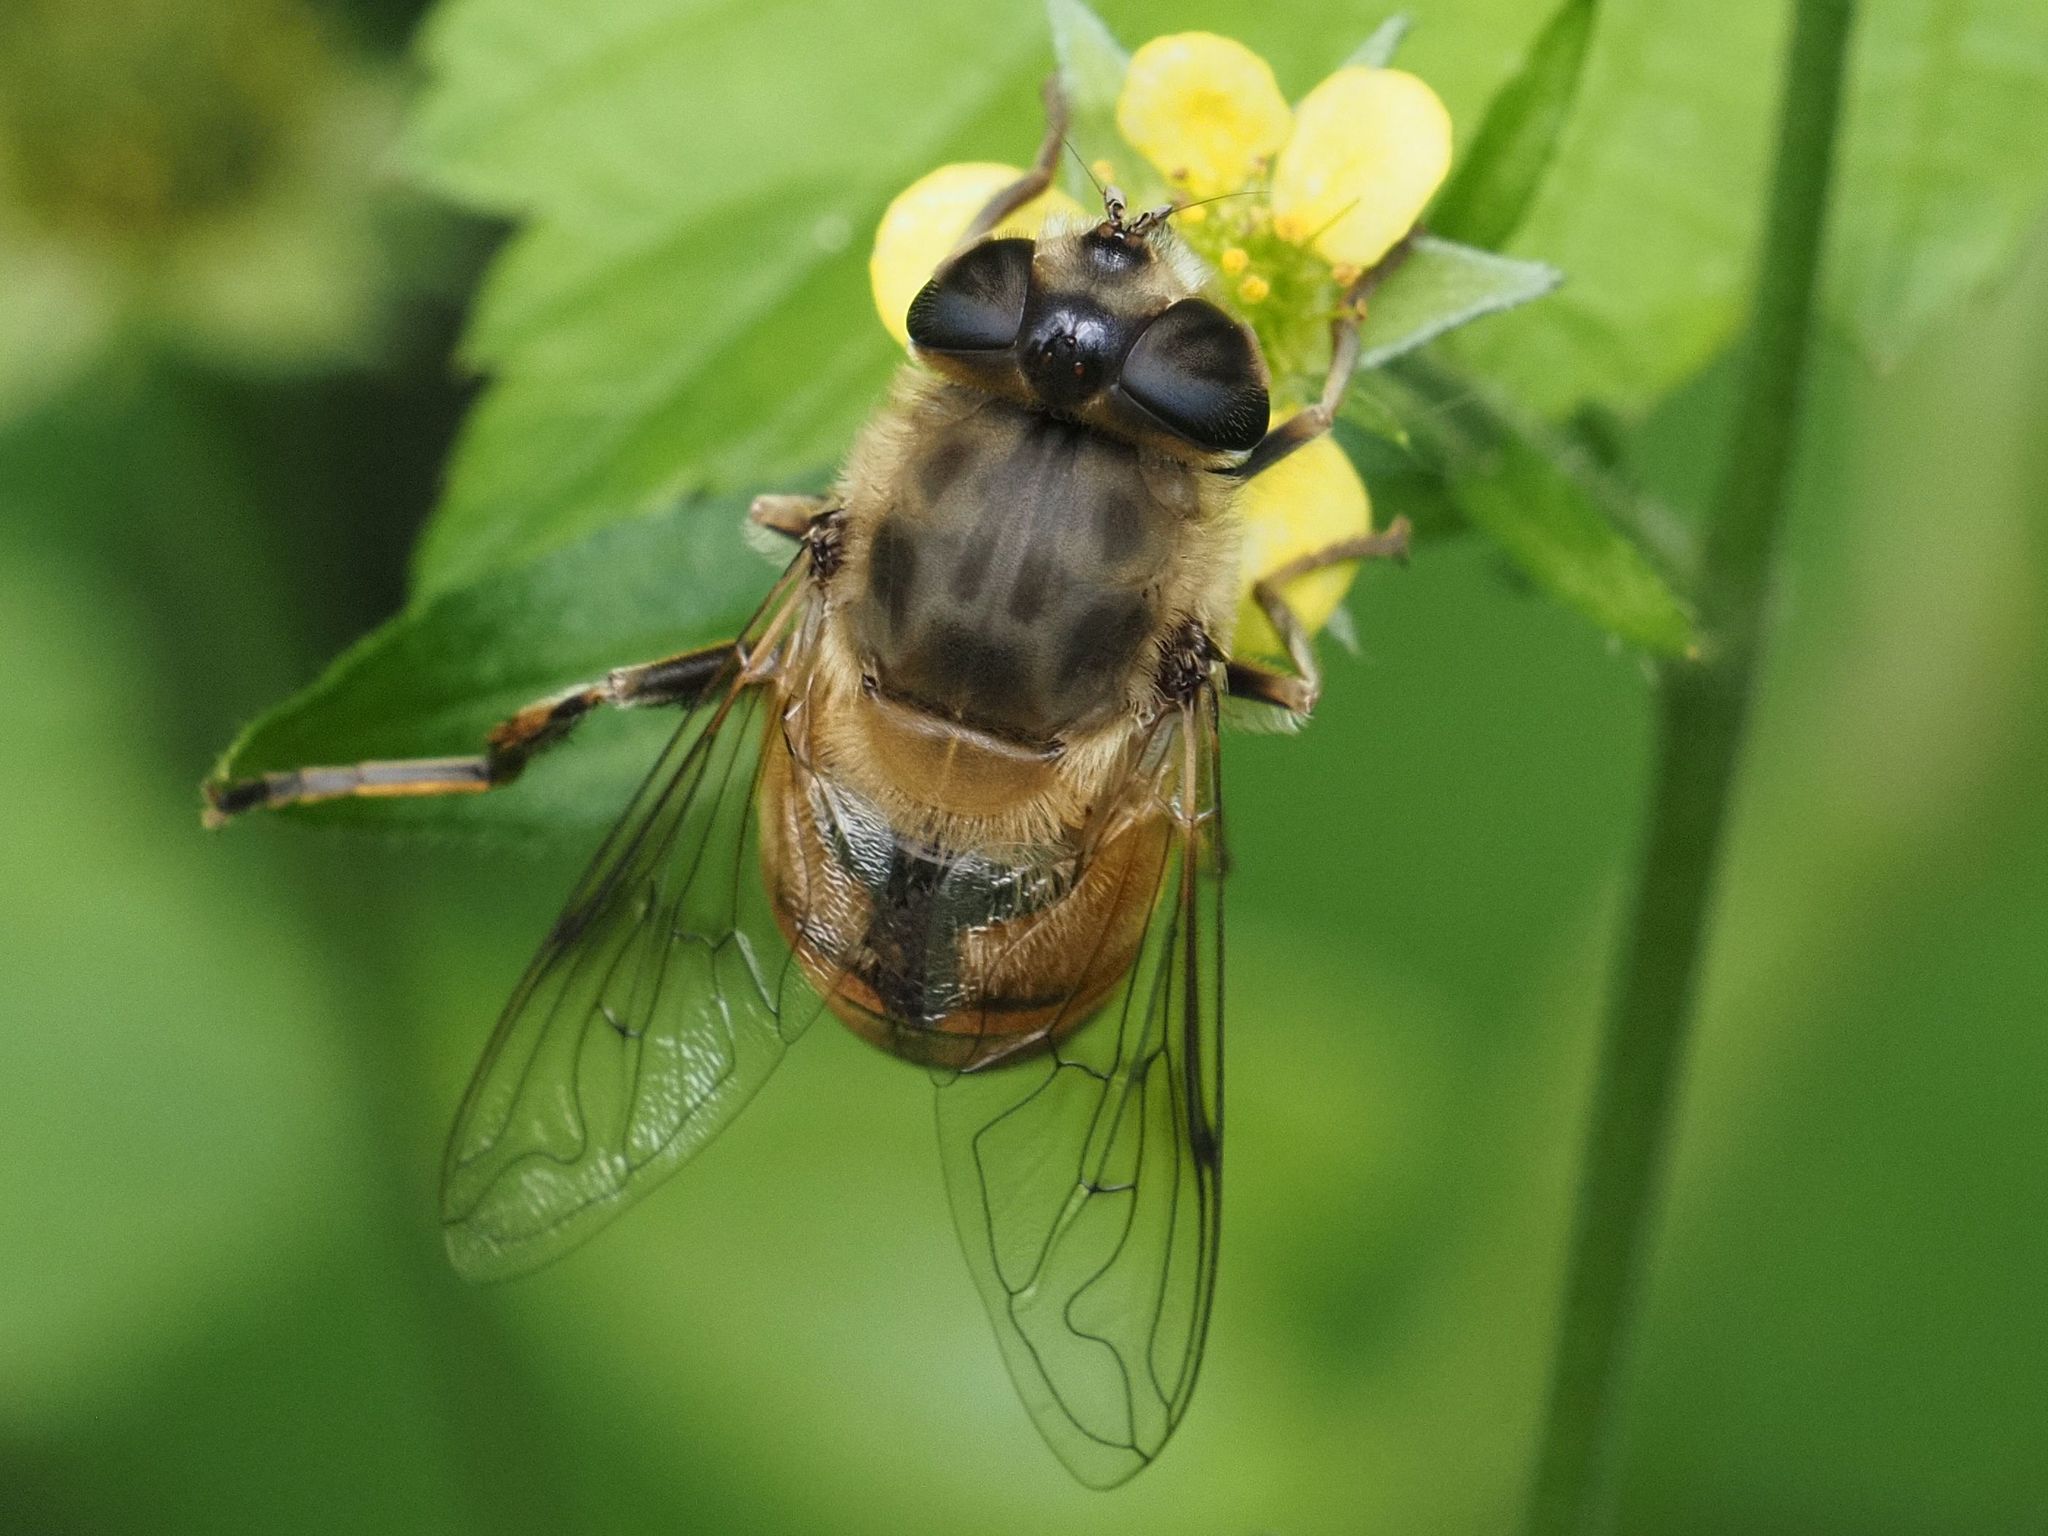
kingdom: Animalia
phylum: Arthropoda
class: Insecta
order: Diptera
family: Syrphidae
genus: Eristalis
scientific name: Eristalis tenax
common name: Drone fly
